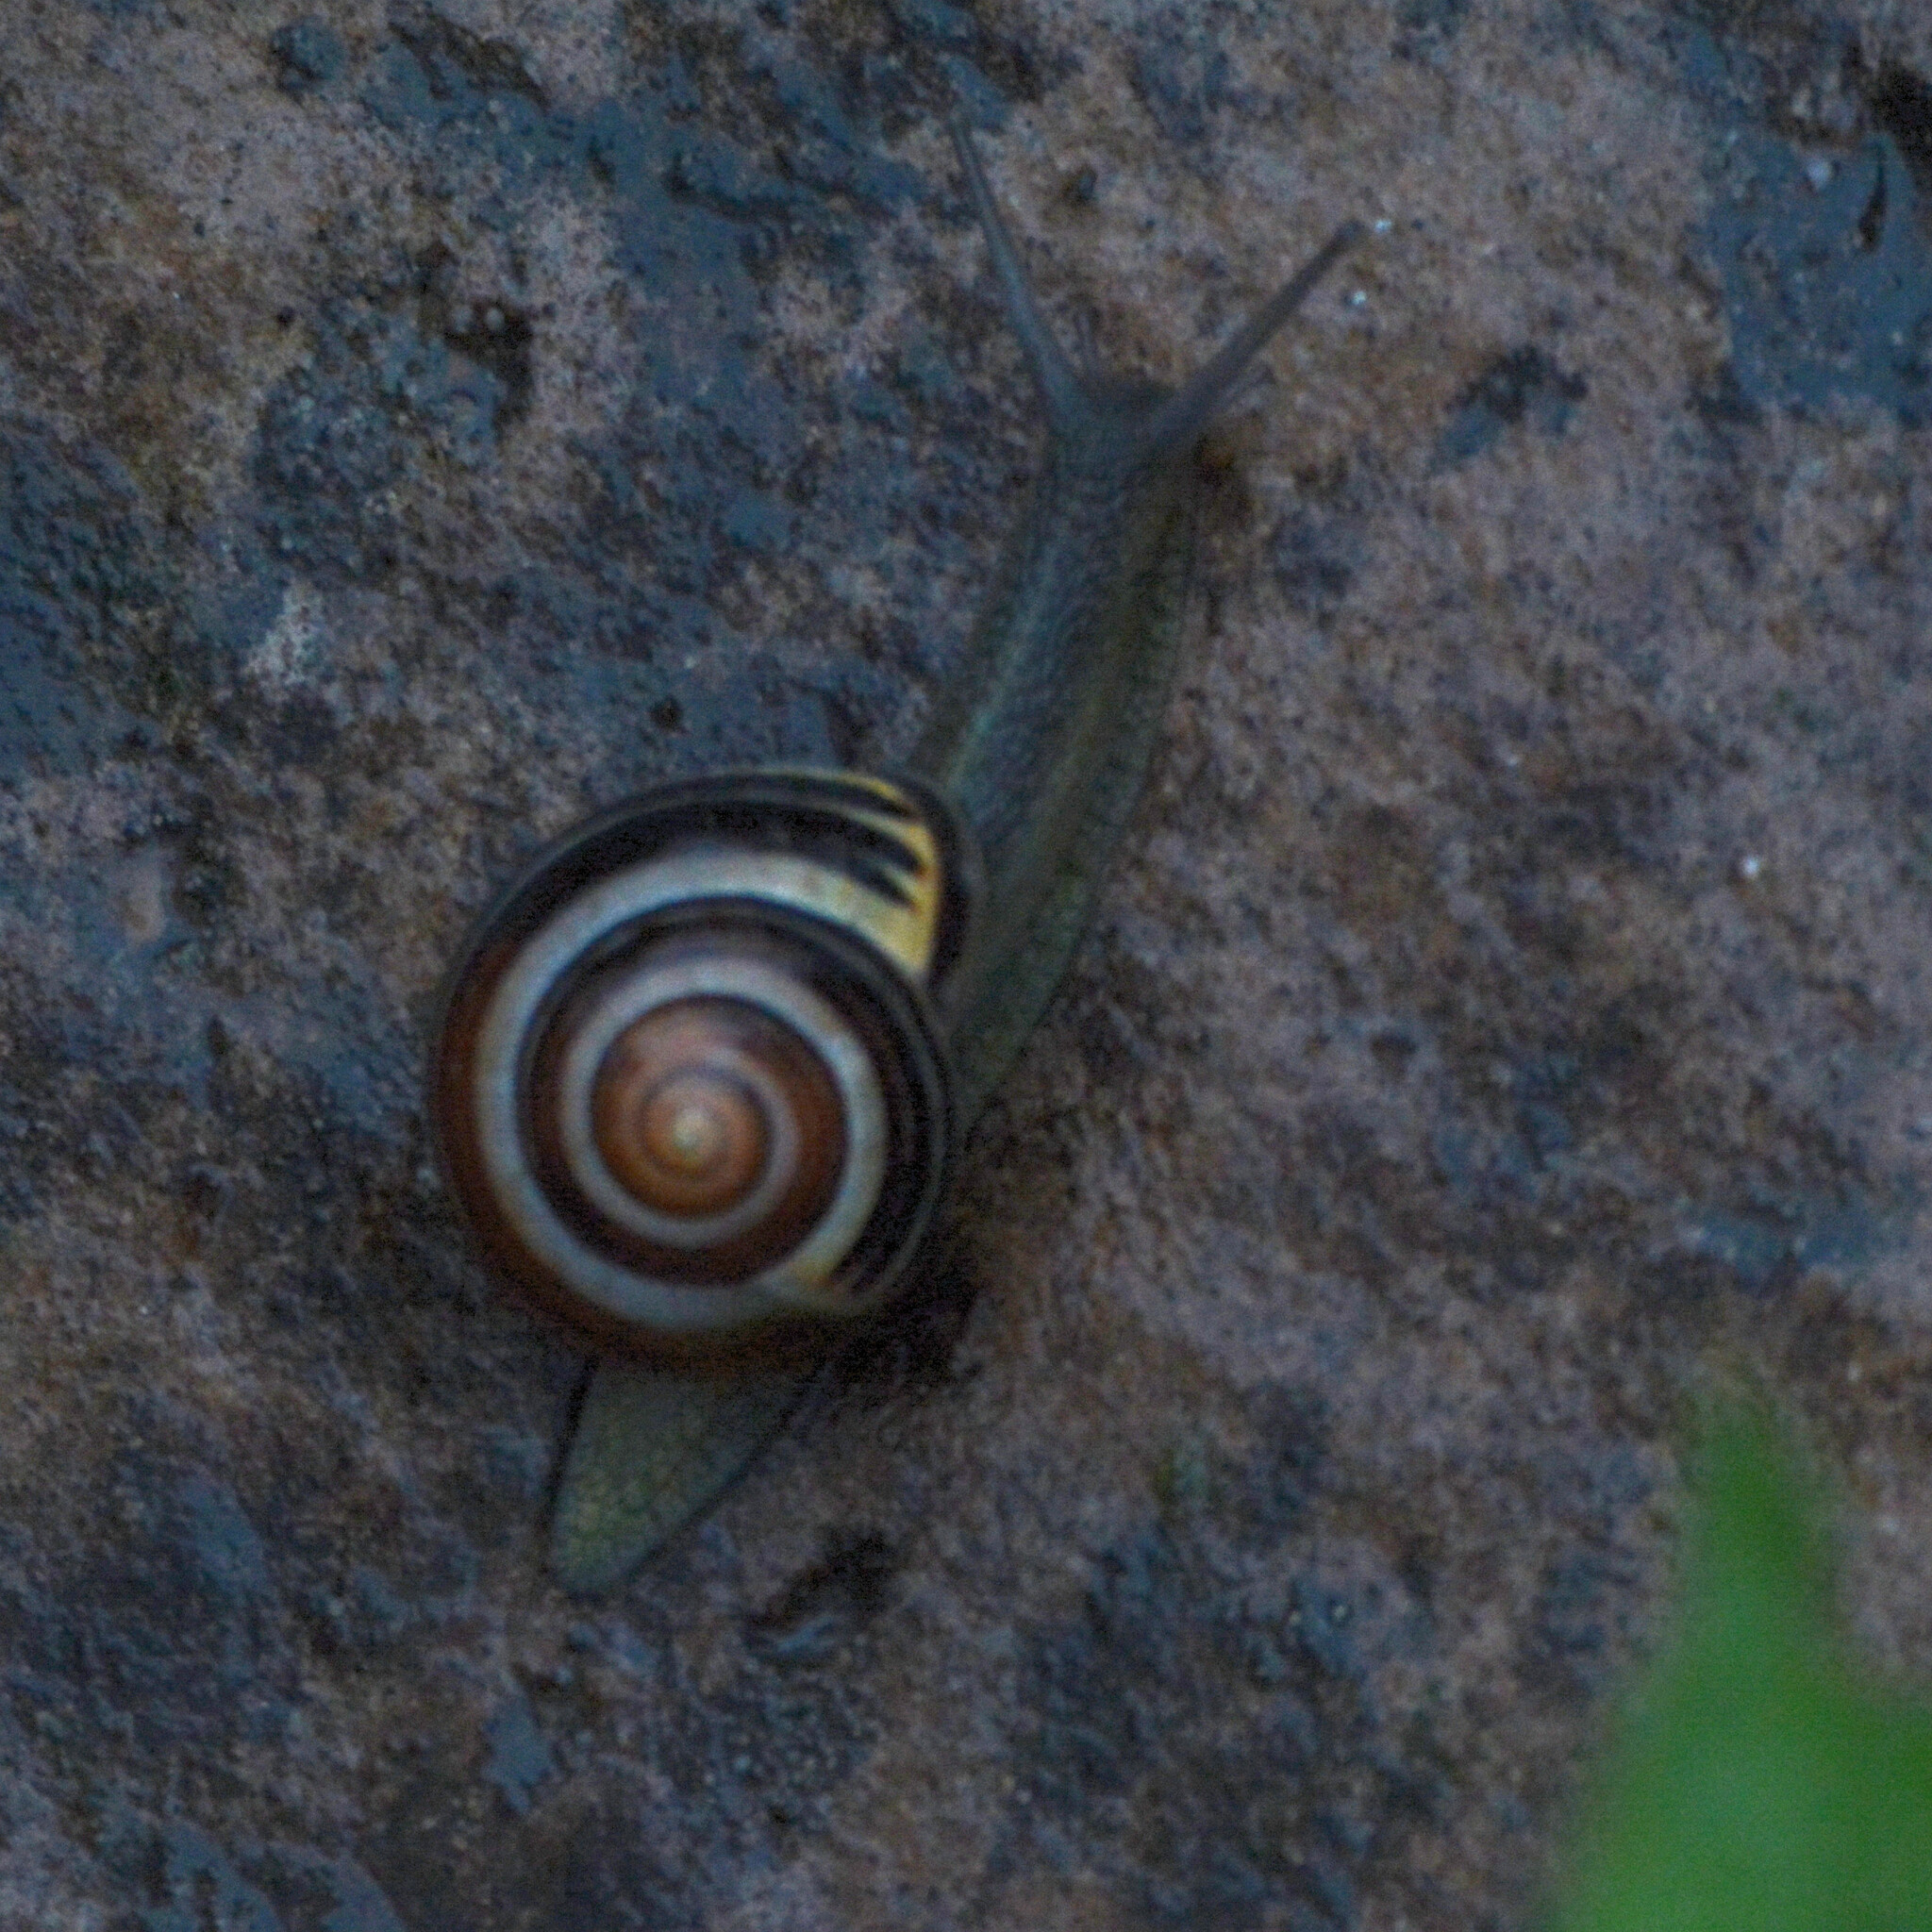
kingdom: Animalia
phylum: Mollusca
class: Gastropoda
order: Stylommatophora
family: Helicidae
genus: Cepaea
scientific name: Cepaea nemoralis
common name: Grovesnail
